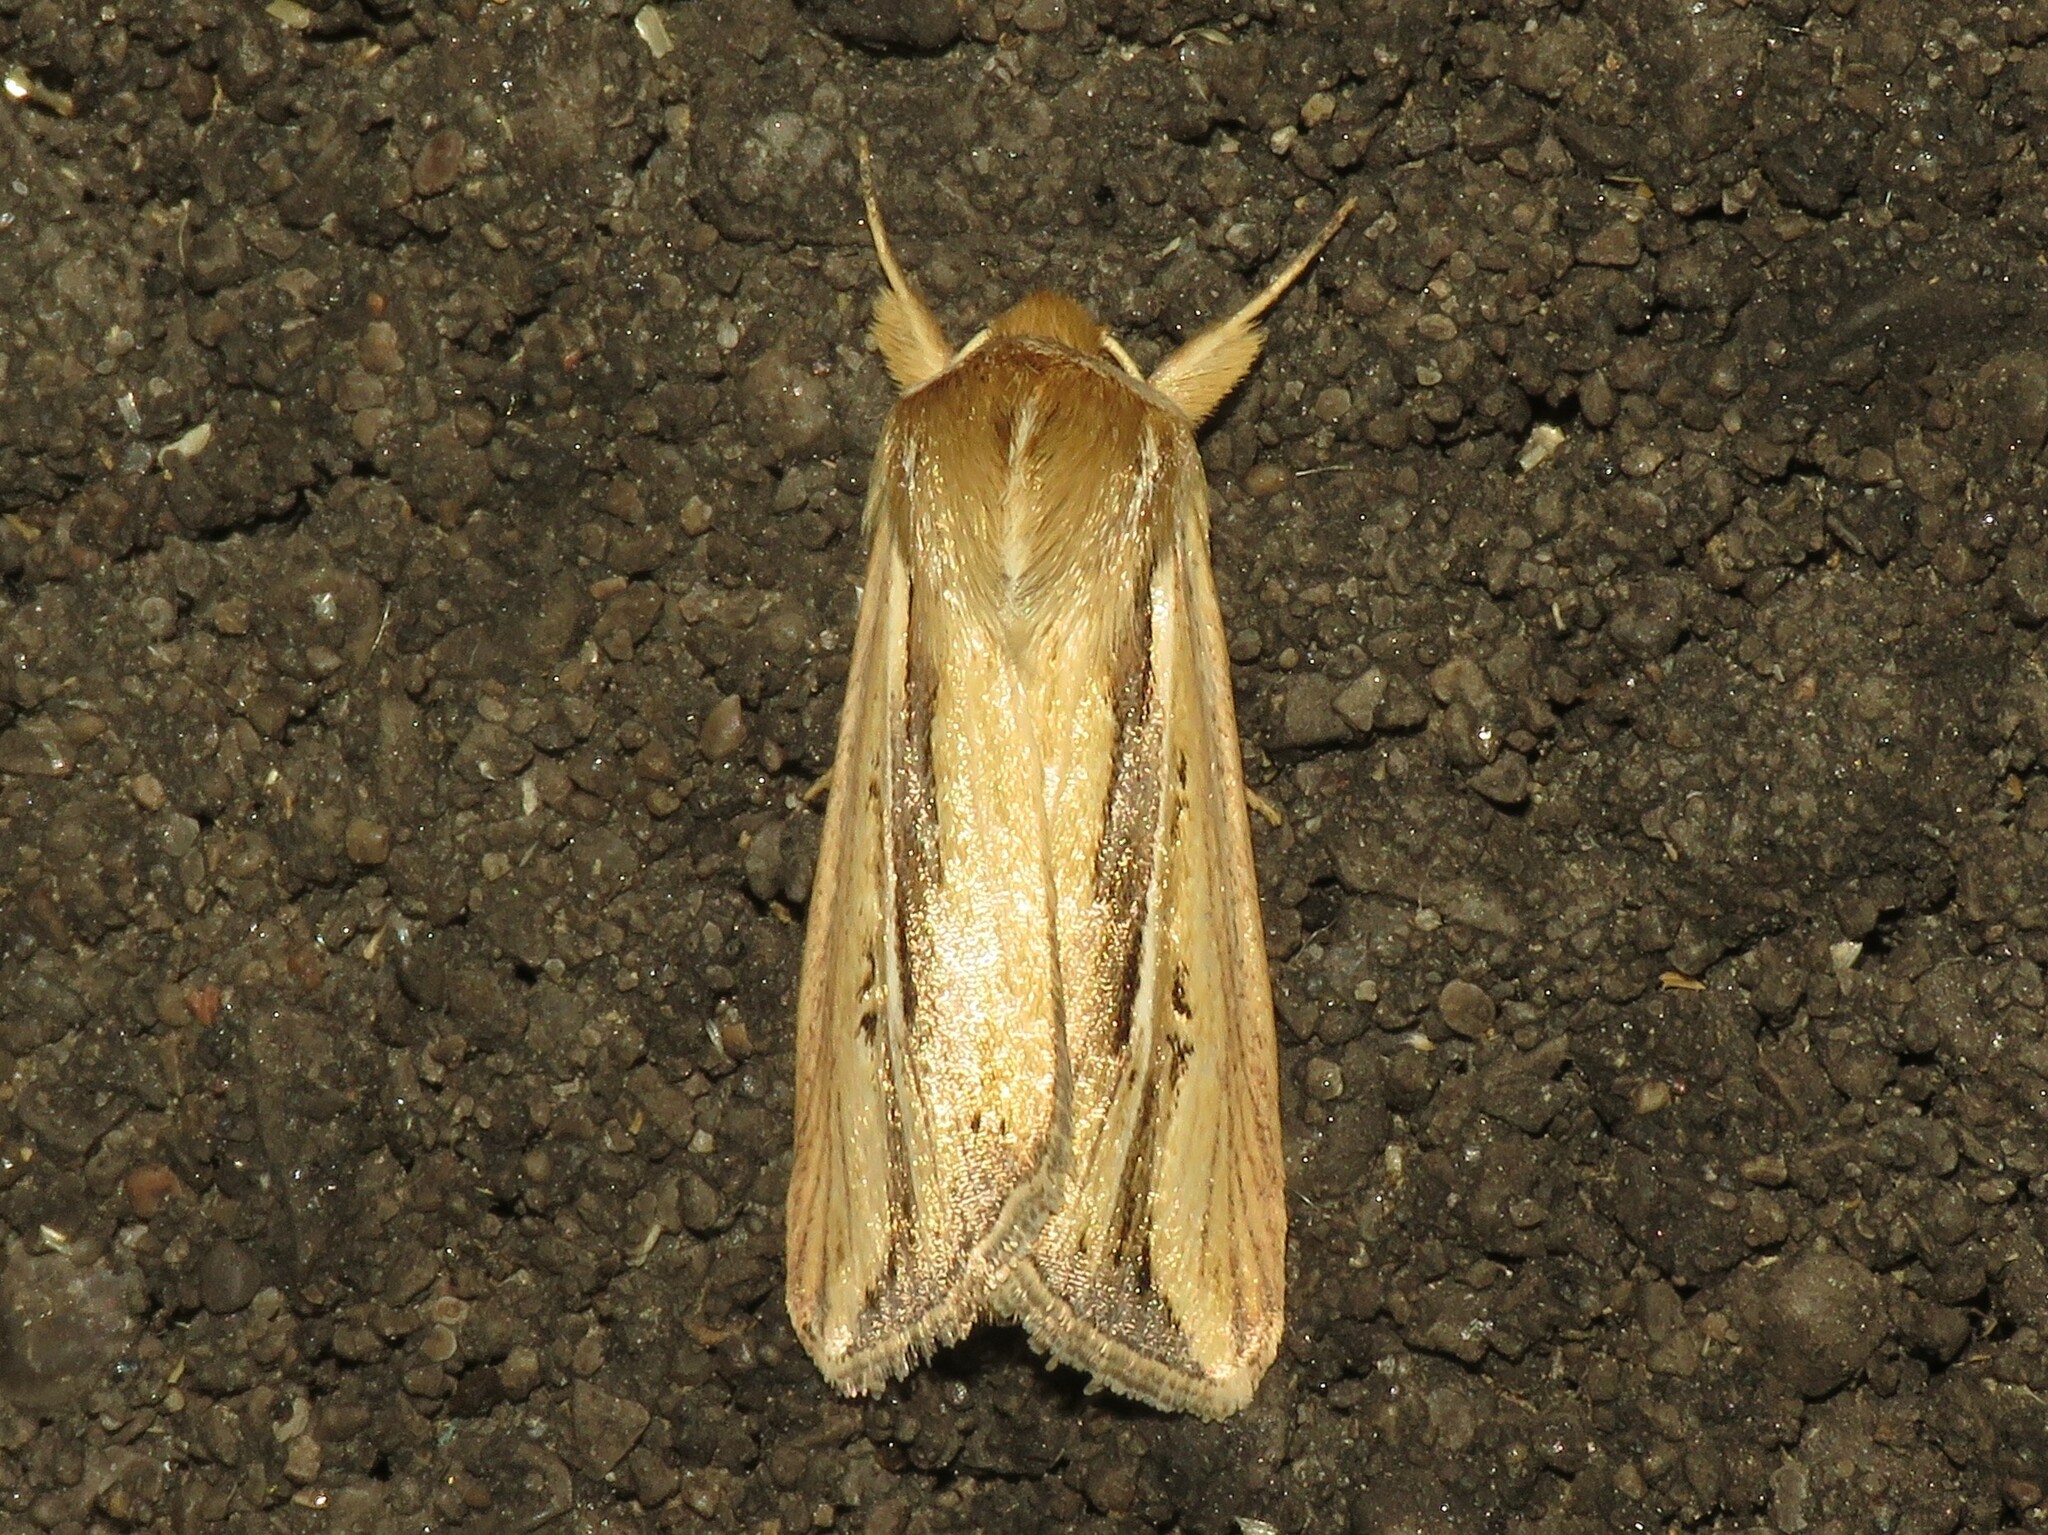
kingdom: Animalia
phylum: Arthropoda
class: Insecta
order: Lepidoptera
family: Noctuidae
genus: Dargida
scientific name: Dargida diffusa
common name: Wheat head armyworm
